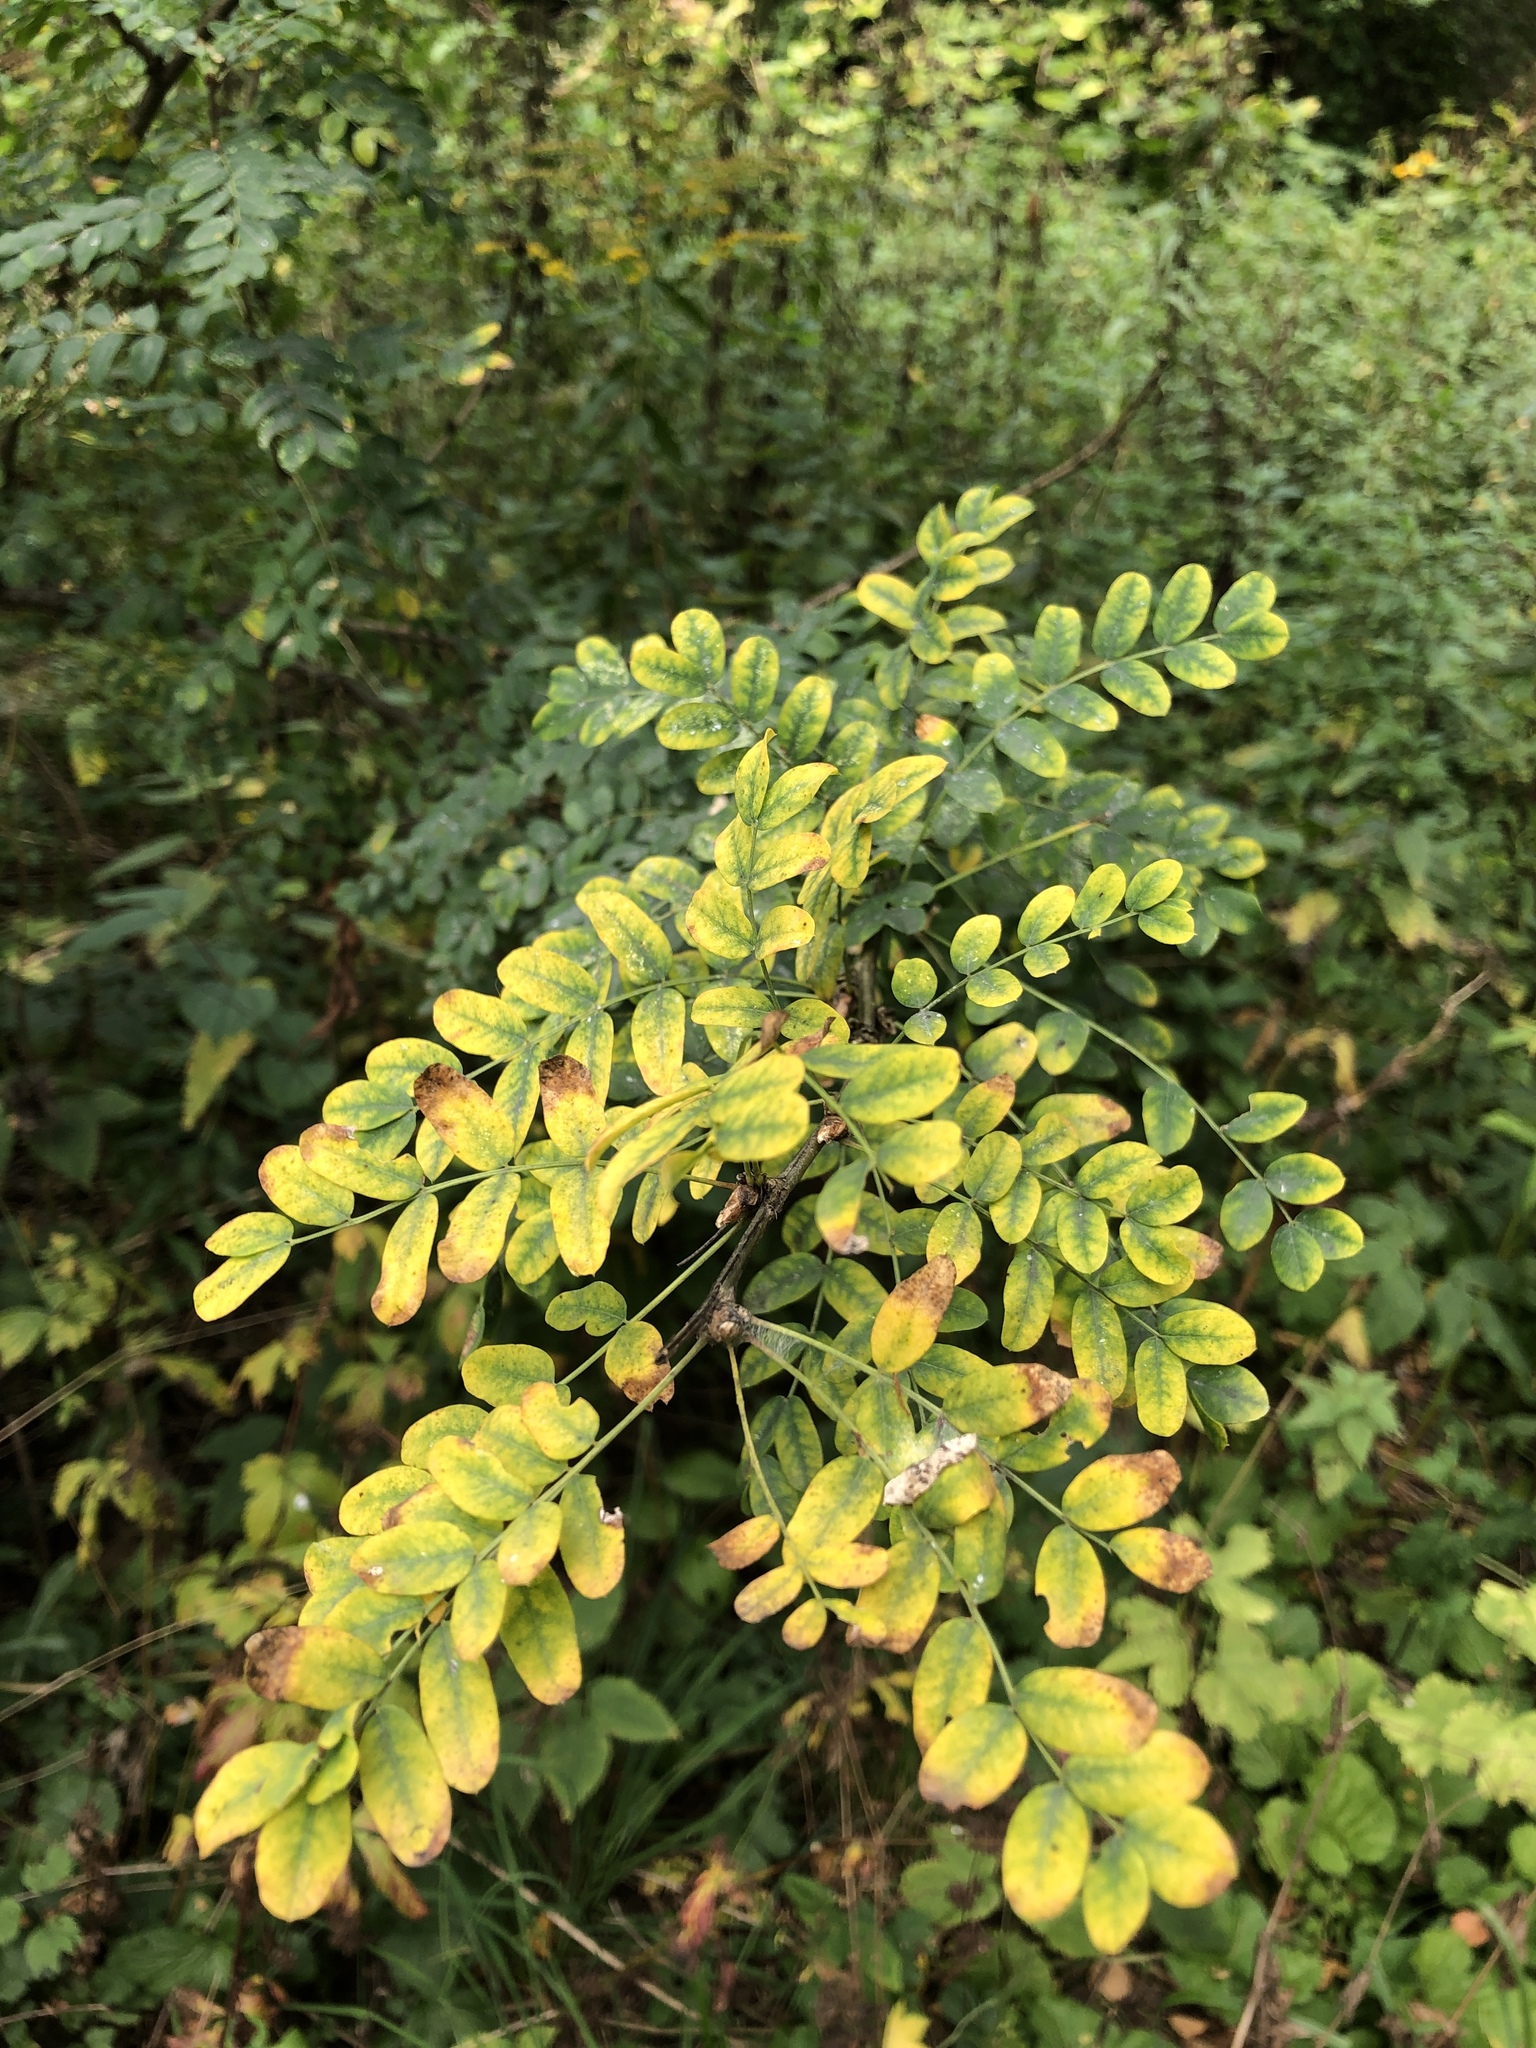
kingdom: Plantae
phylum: Tracheophyta
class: Magnoliopsida
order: Fabales
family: Fabaceae
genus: Caragana
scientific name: Caragana arborescens
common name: Siberian peashrub
